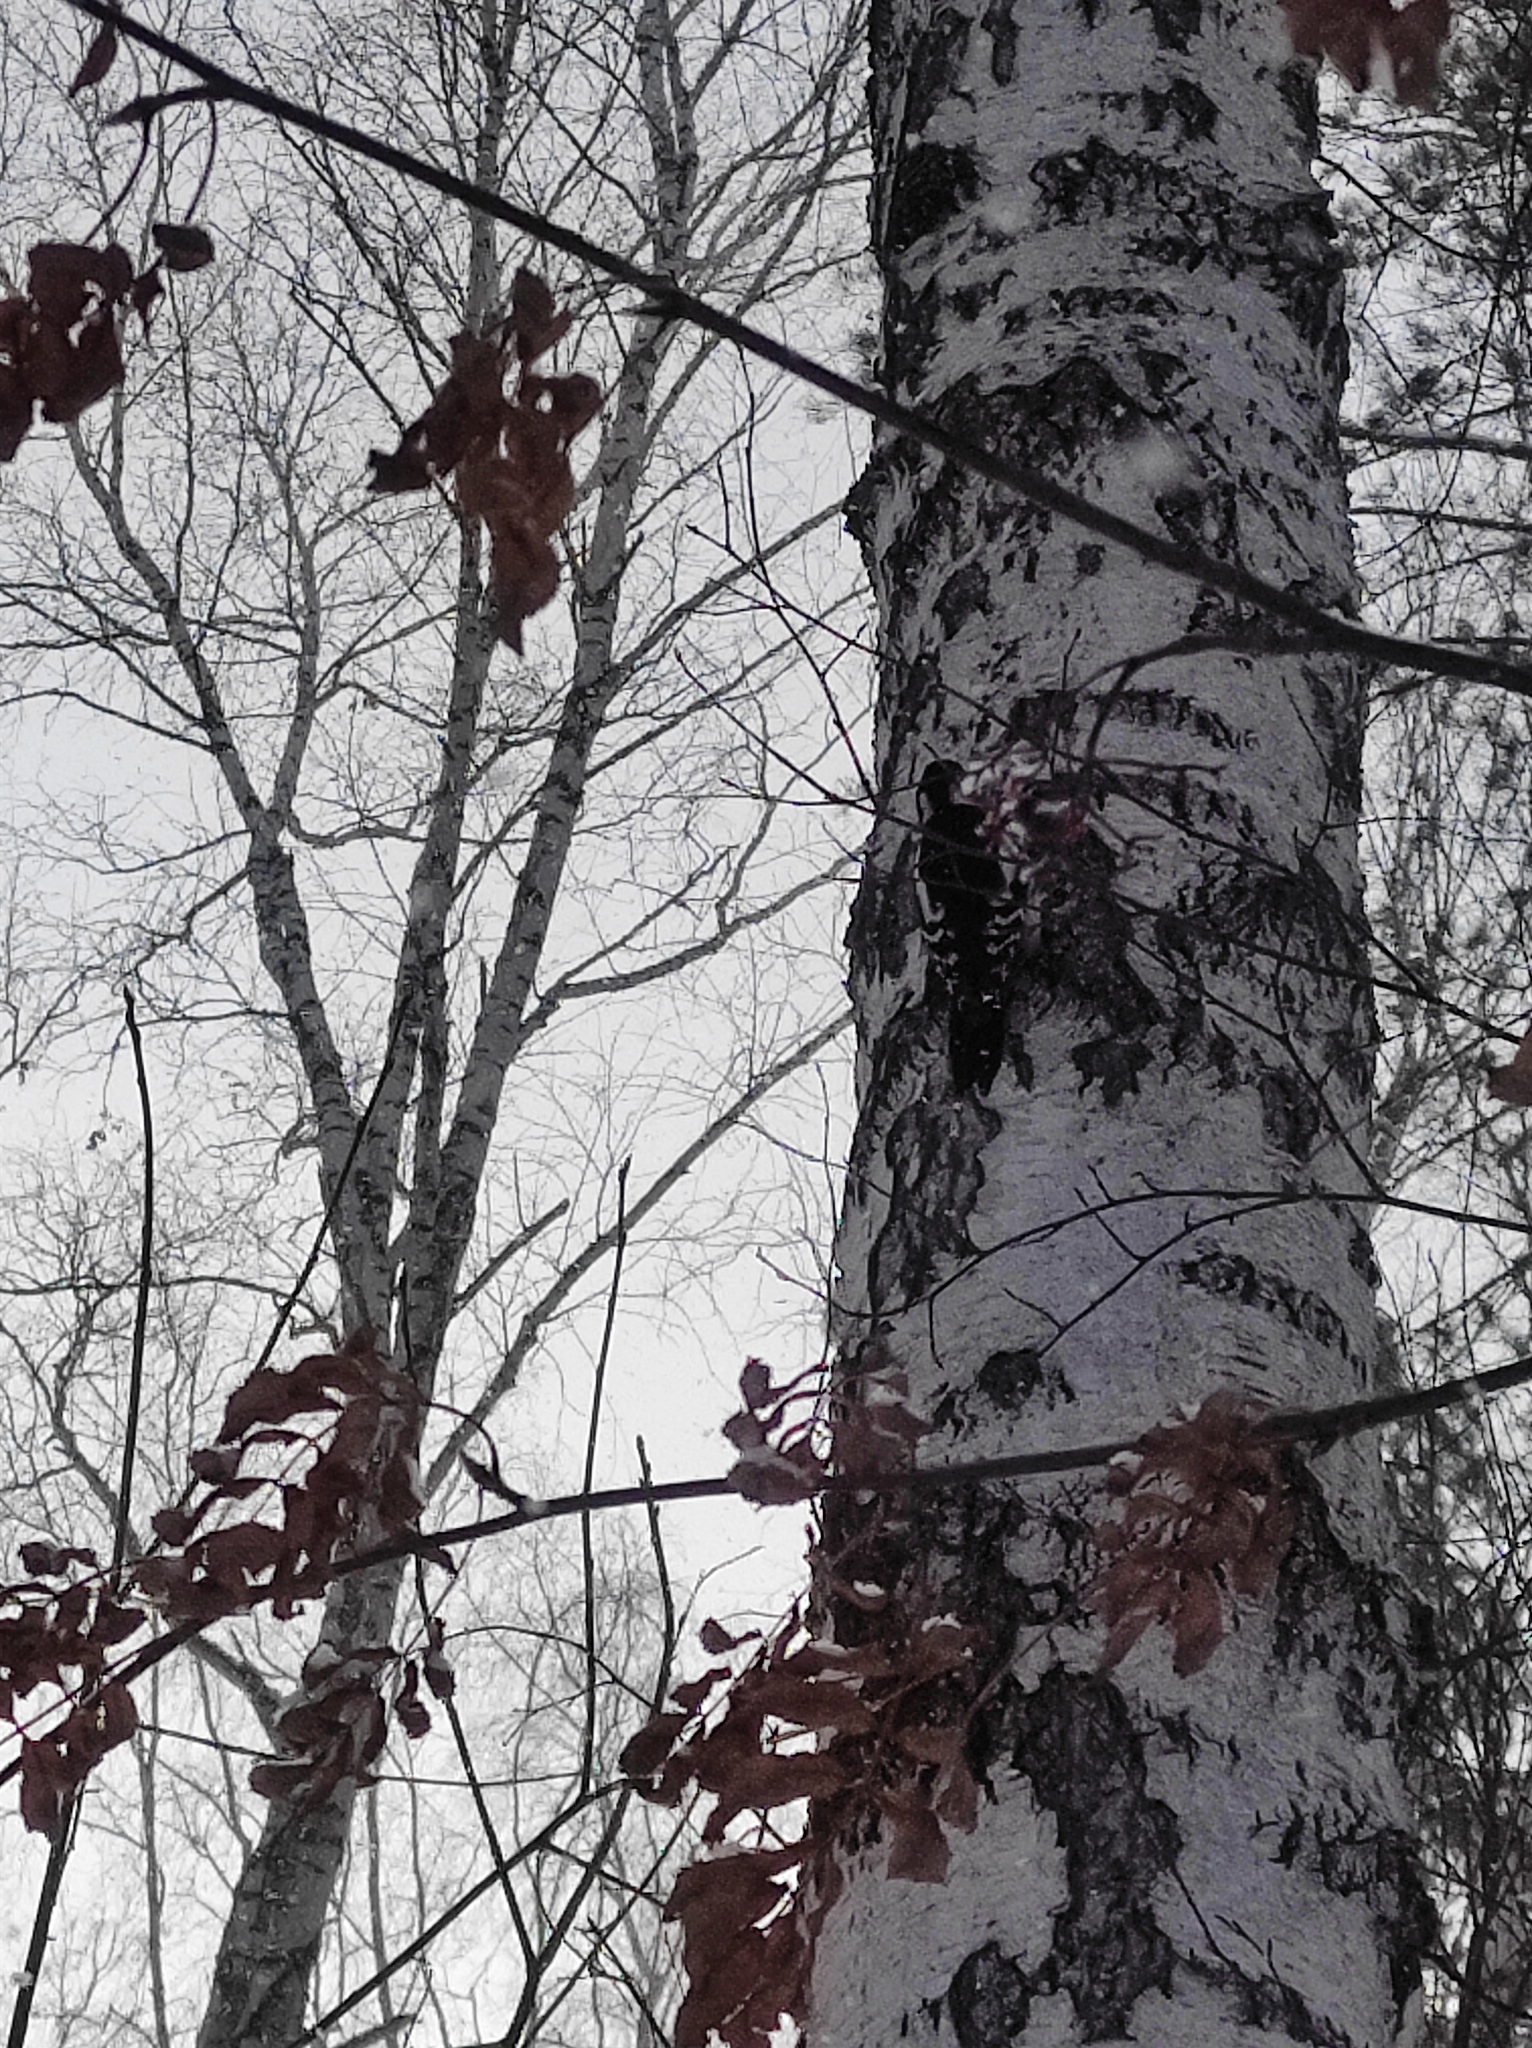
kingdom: Animalia
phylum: Chordata
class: Aves
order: Piciformes
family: Picidae
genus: Dendrocopos
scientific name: Dendrocopos major
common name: Great spotted woodpecker
